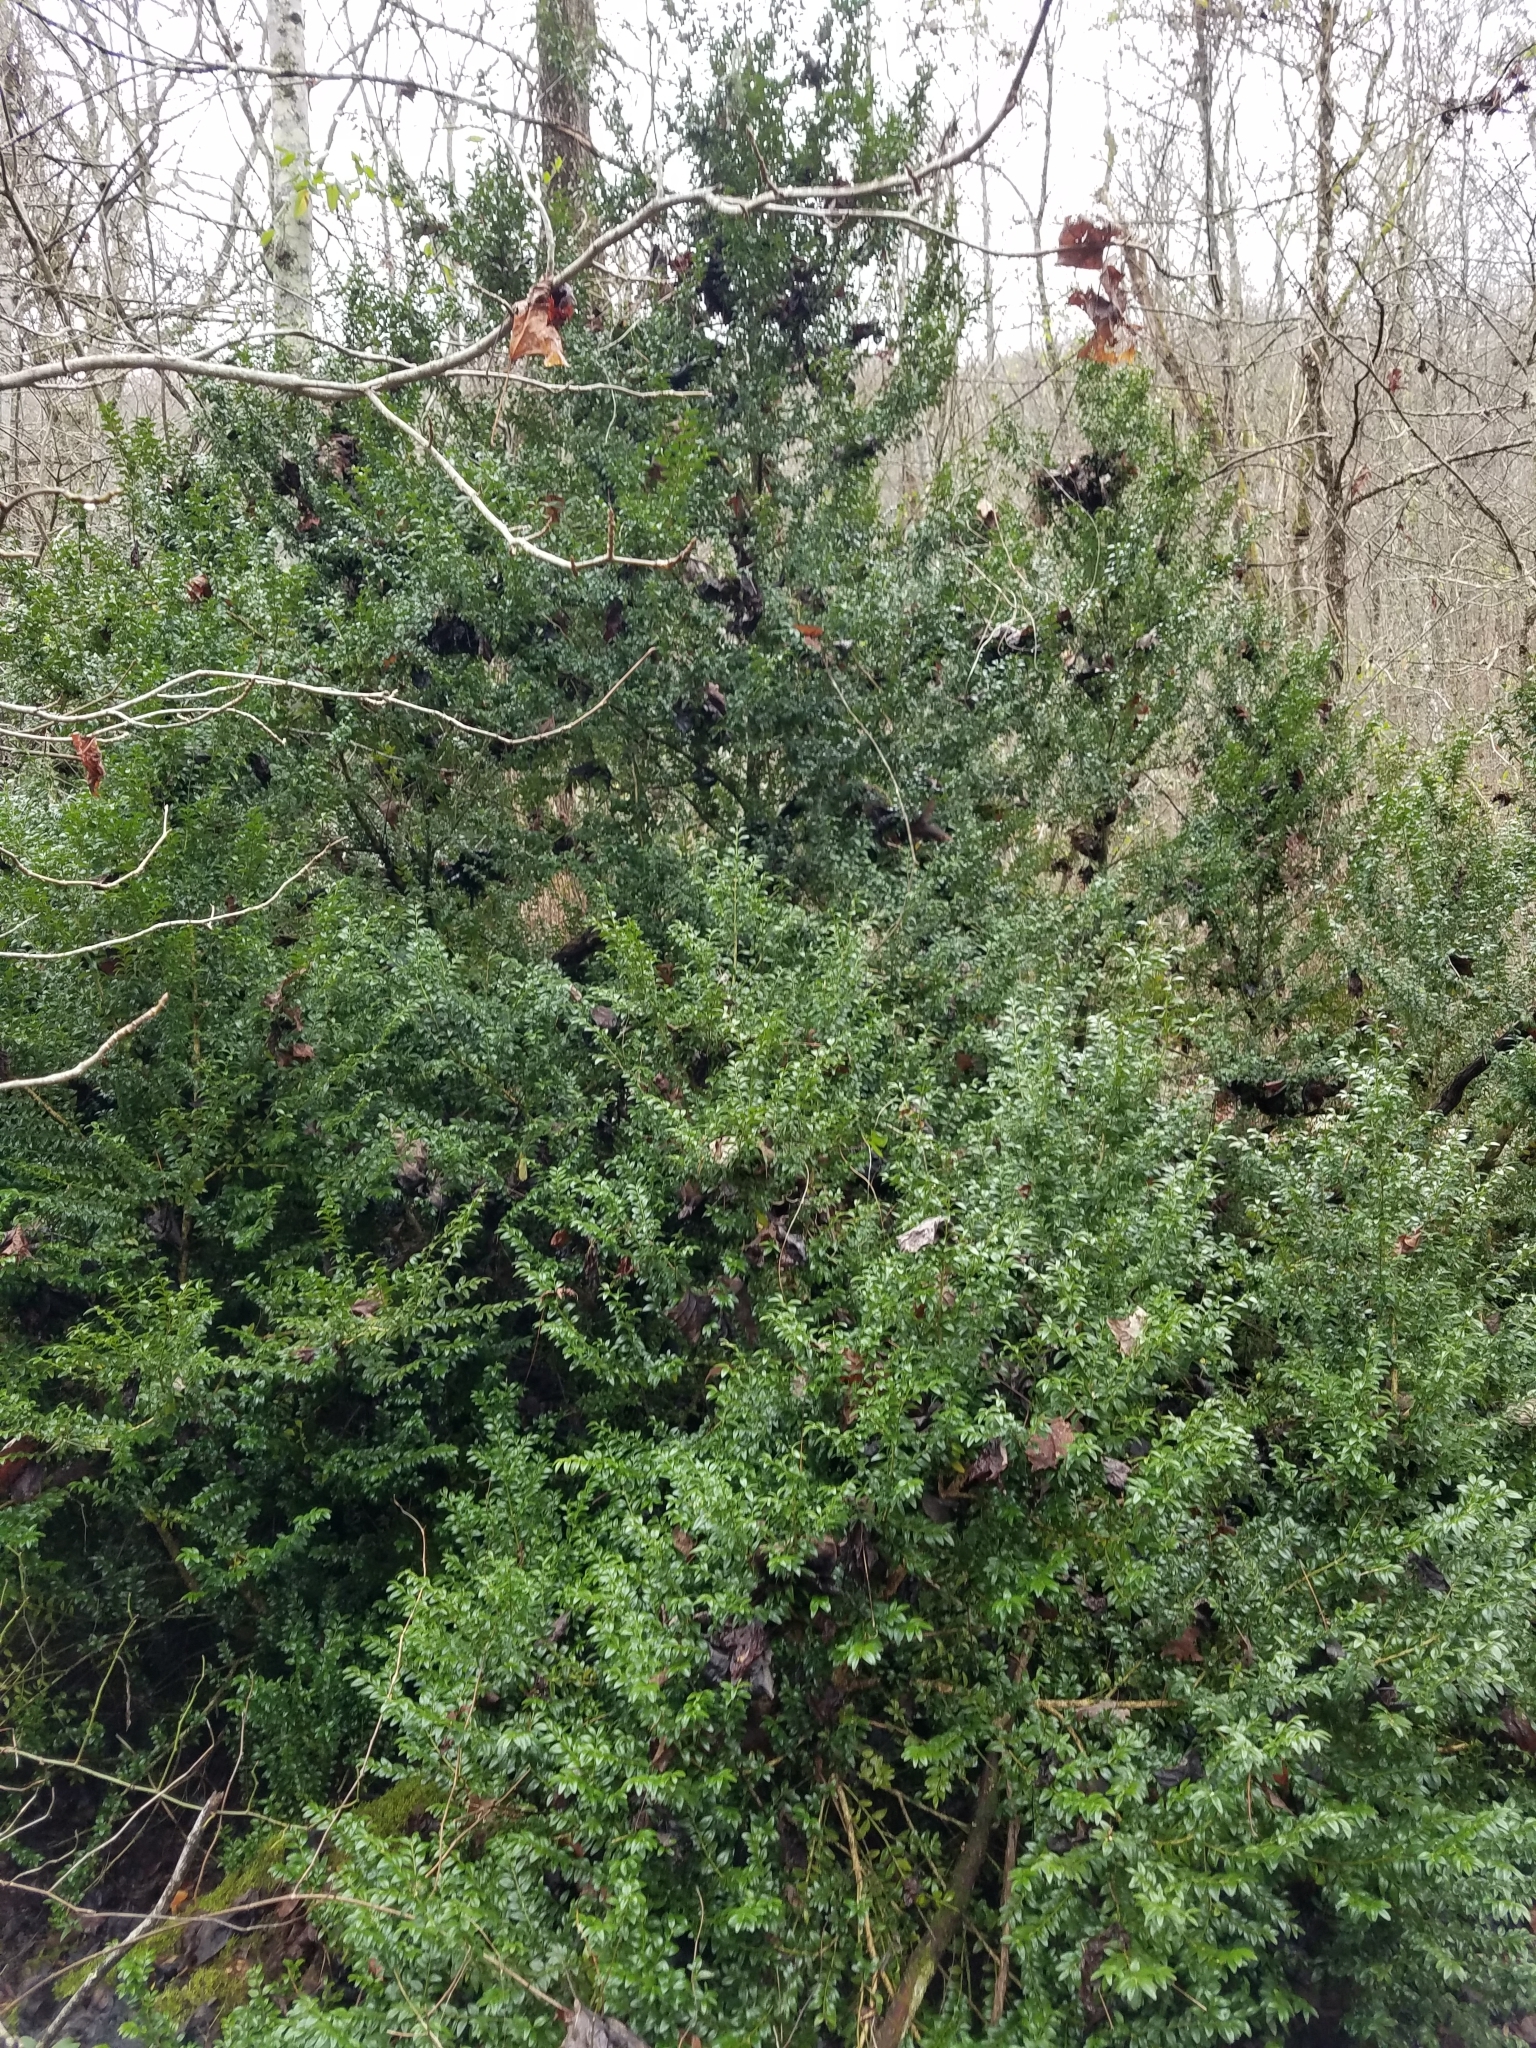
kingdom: Plantae
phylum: Tracheophyta
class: Magnoliopsida
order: Buxales
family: Buxaceae
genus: Buxus
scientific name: Buxus sempervirens
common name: Box
